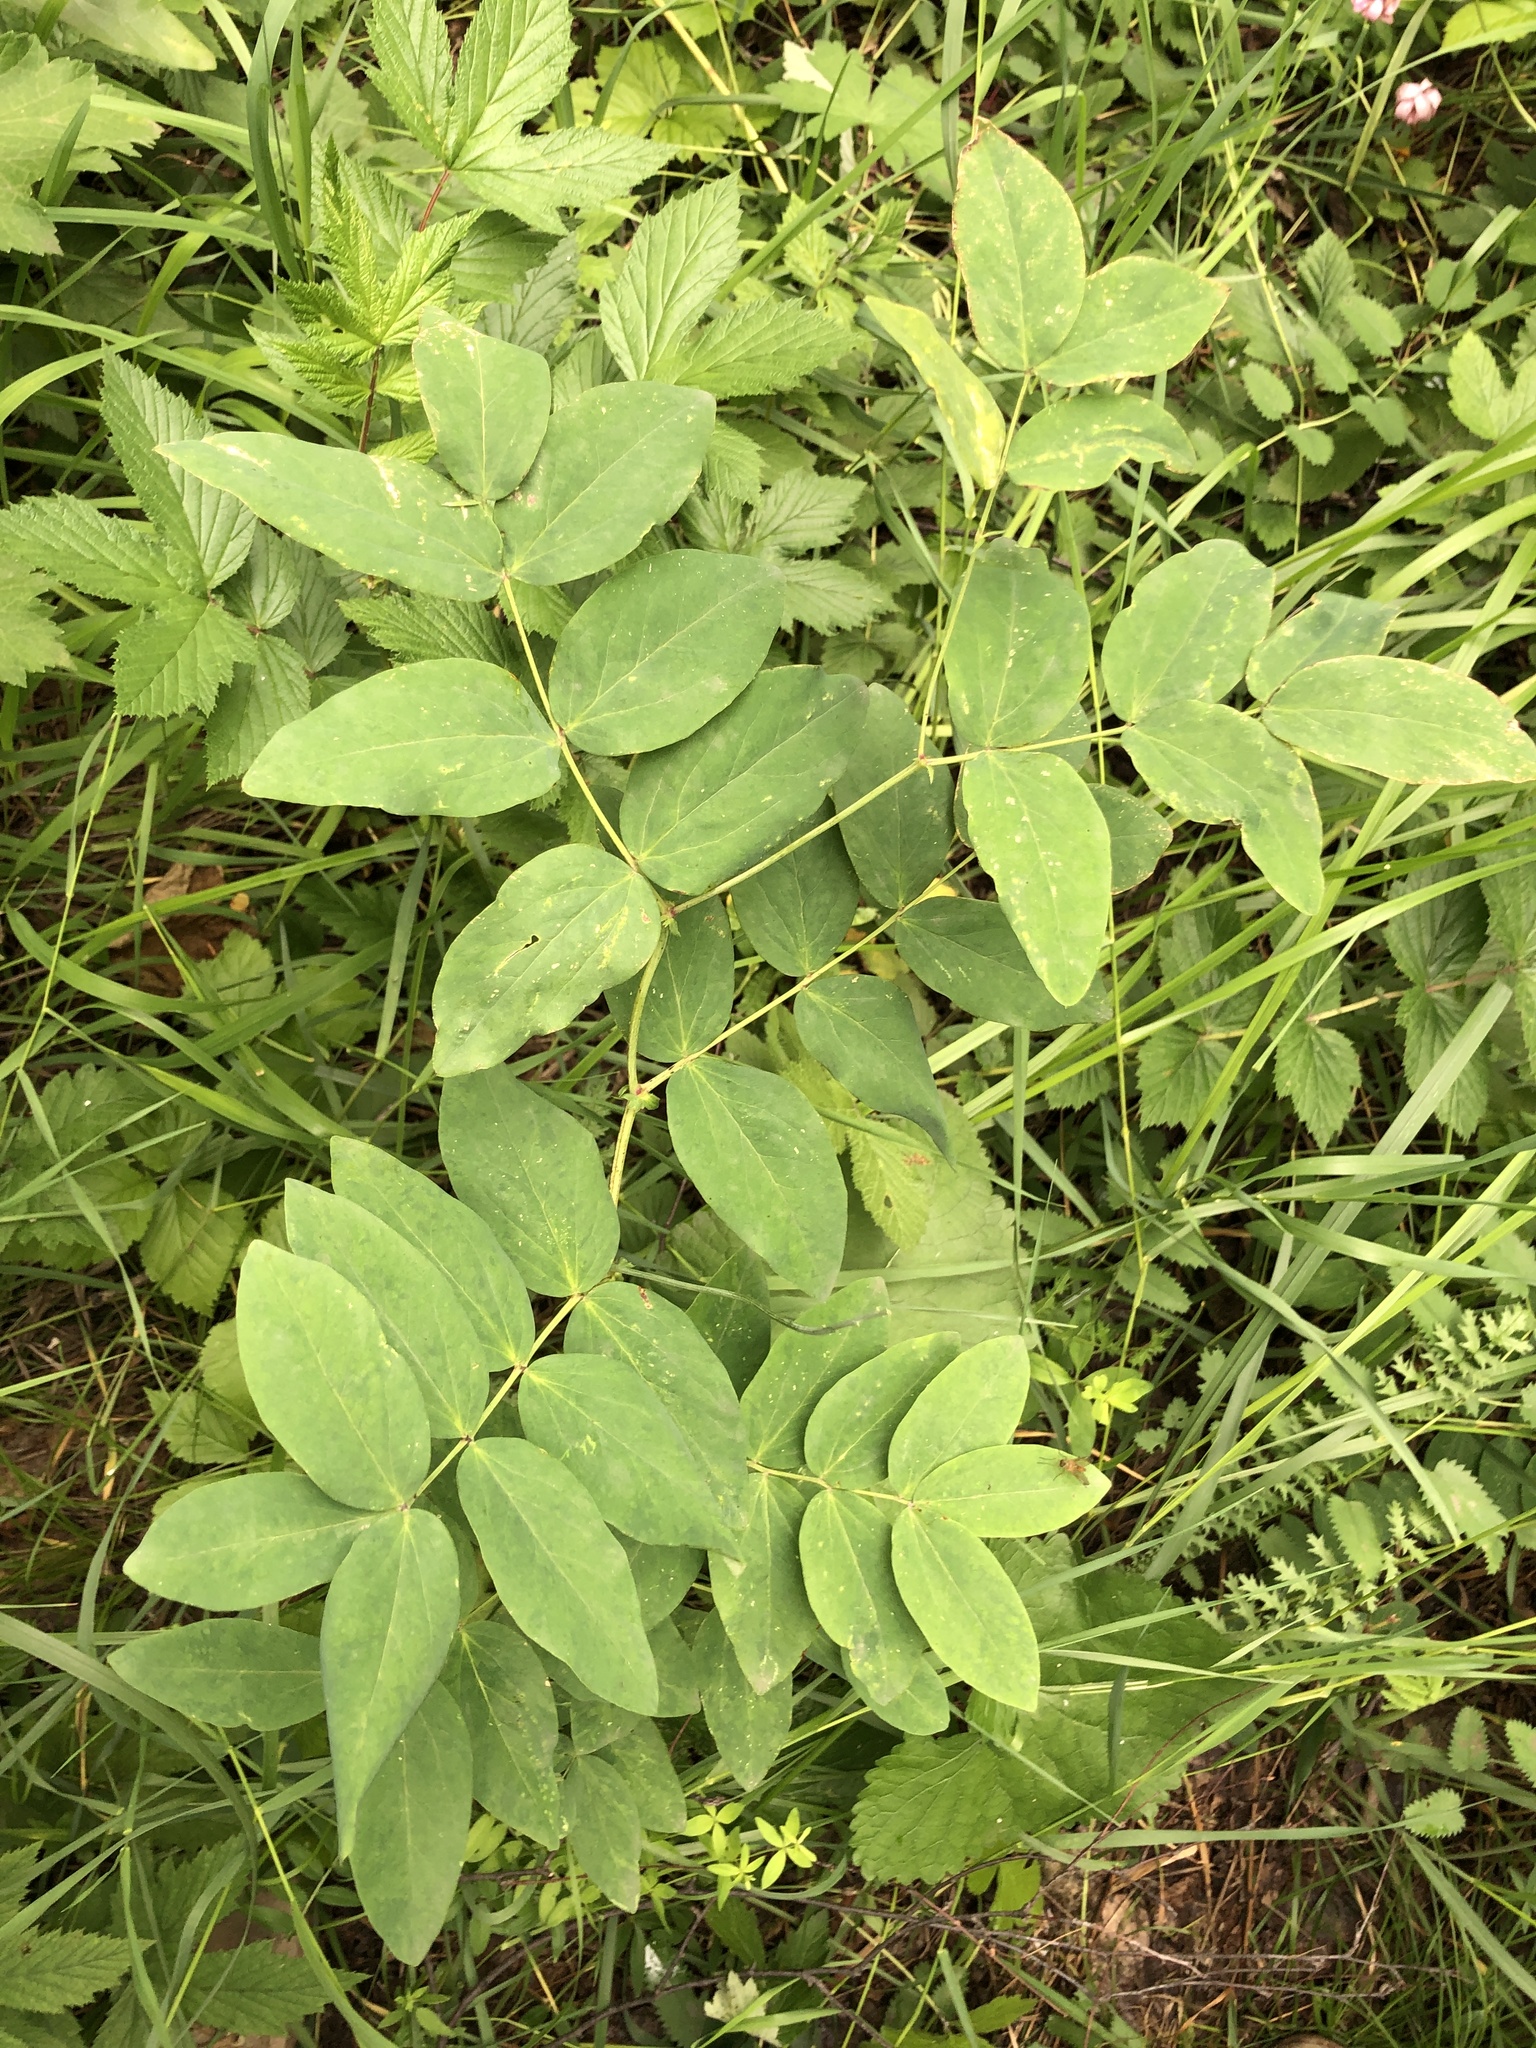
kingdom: Plantae
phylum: Tracheophyta
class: Magnoliopsida
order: Fabales
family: Fabaceae
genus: Lathyrus
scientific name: Lathyrus gmelinii
